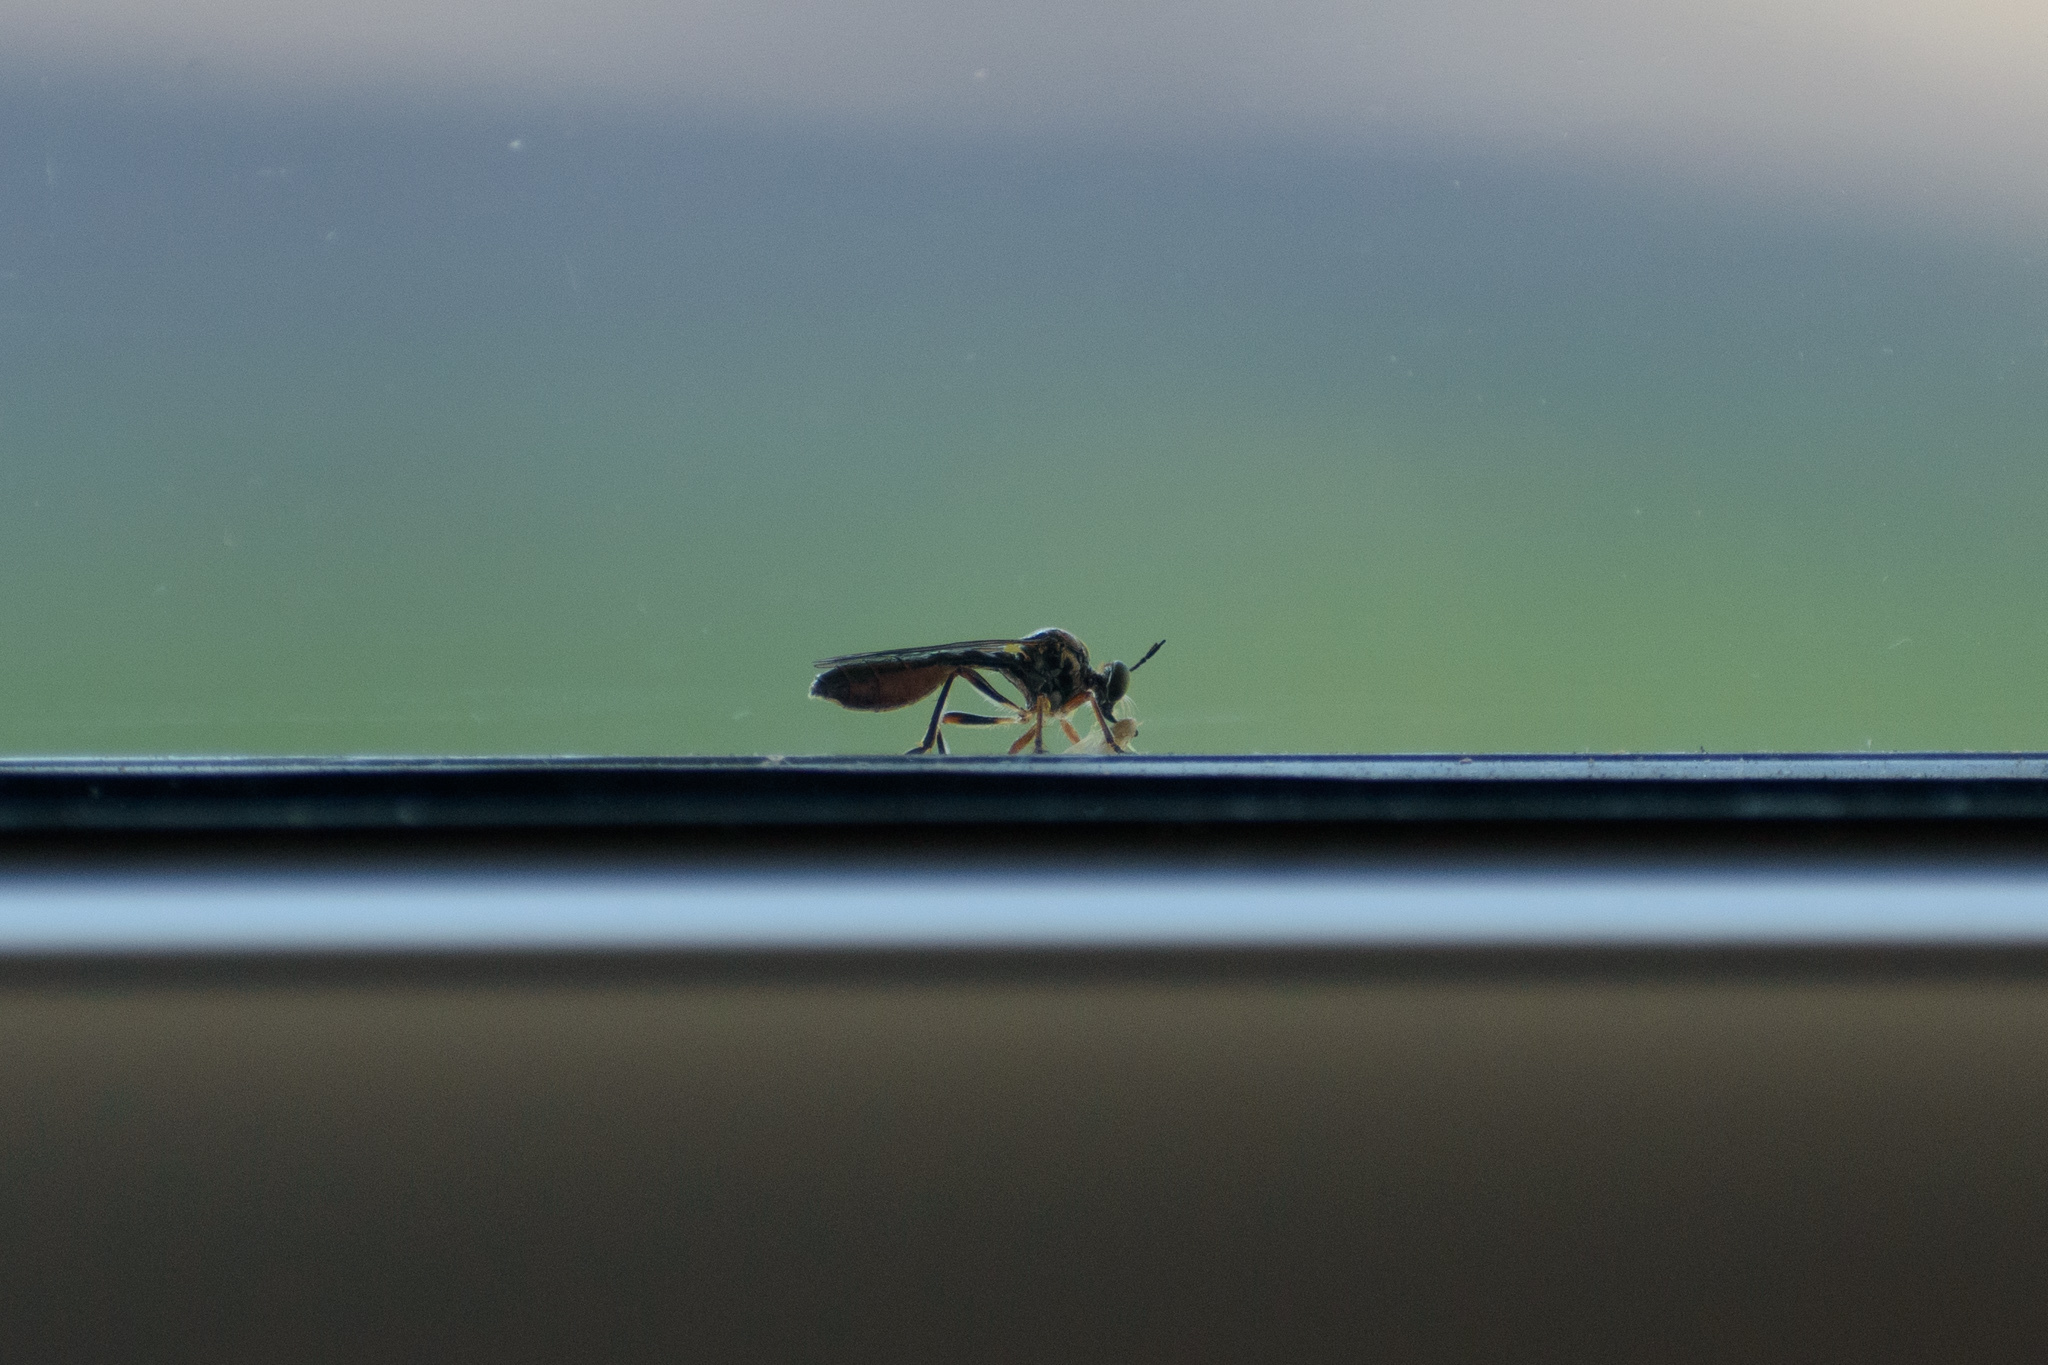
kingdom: Animalia
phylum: Arthropoda
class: Insecta
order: Diptera
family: Asilidae
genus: Dioctria
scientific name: Dioctria hyalipennis
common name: Stripe-legged robberfly
